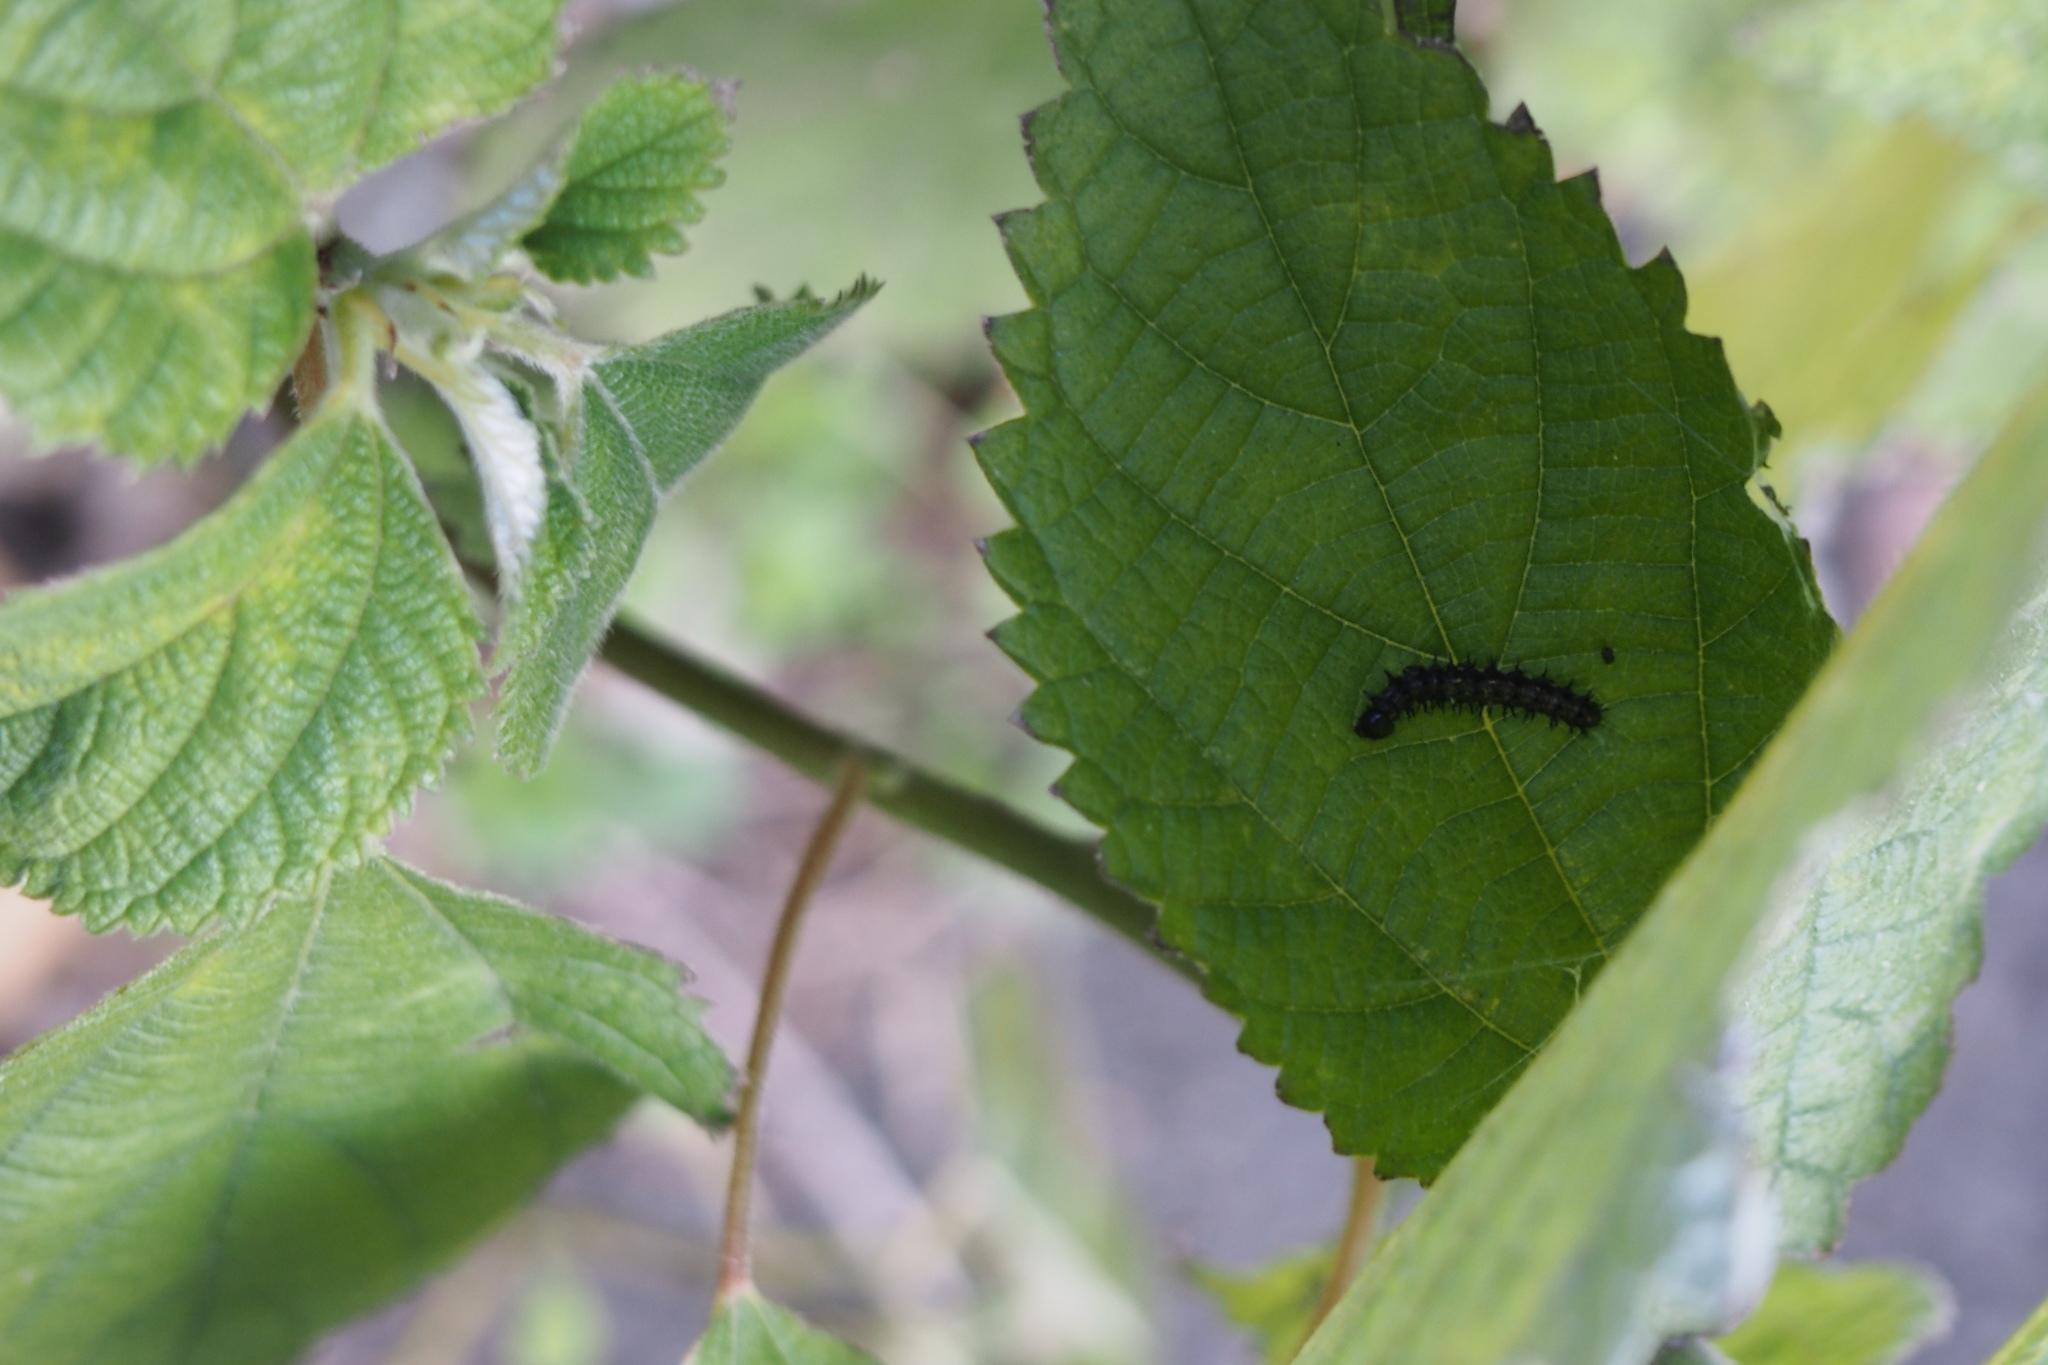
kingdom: Animalia
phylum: Arthropoda
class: Insecta
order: Lepidoptera
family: Nymphalidae
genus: Vanessa
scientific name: Vanessa indica
